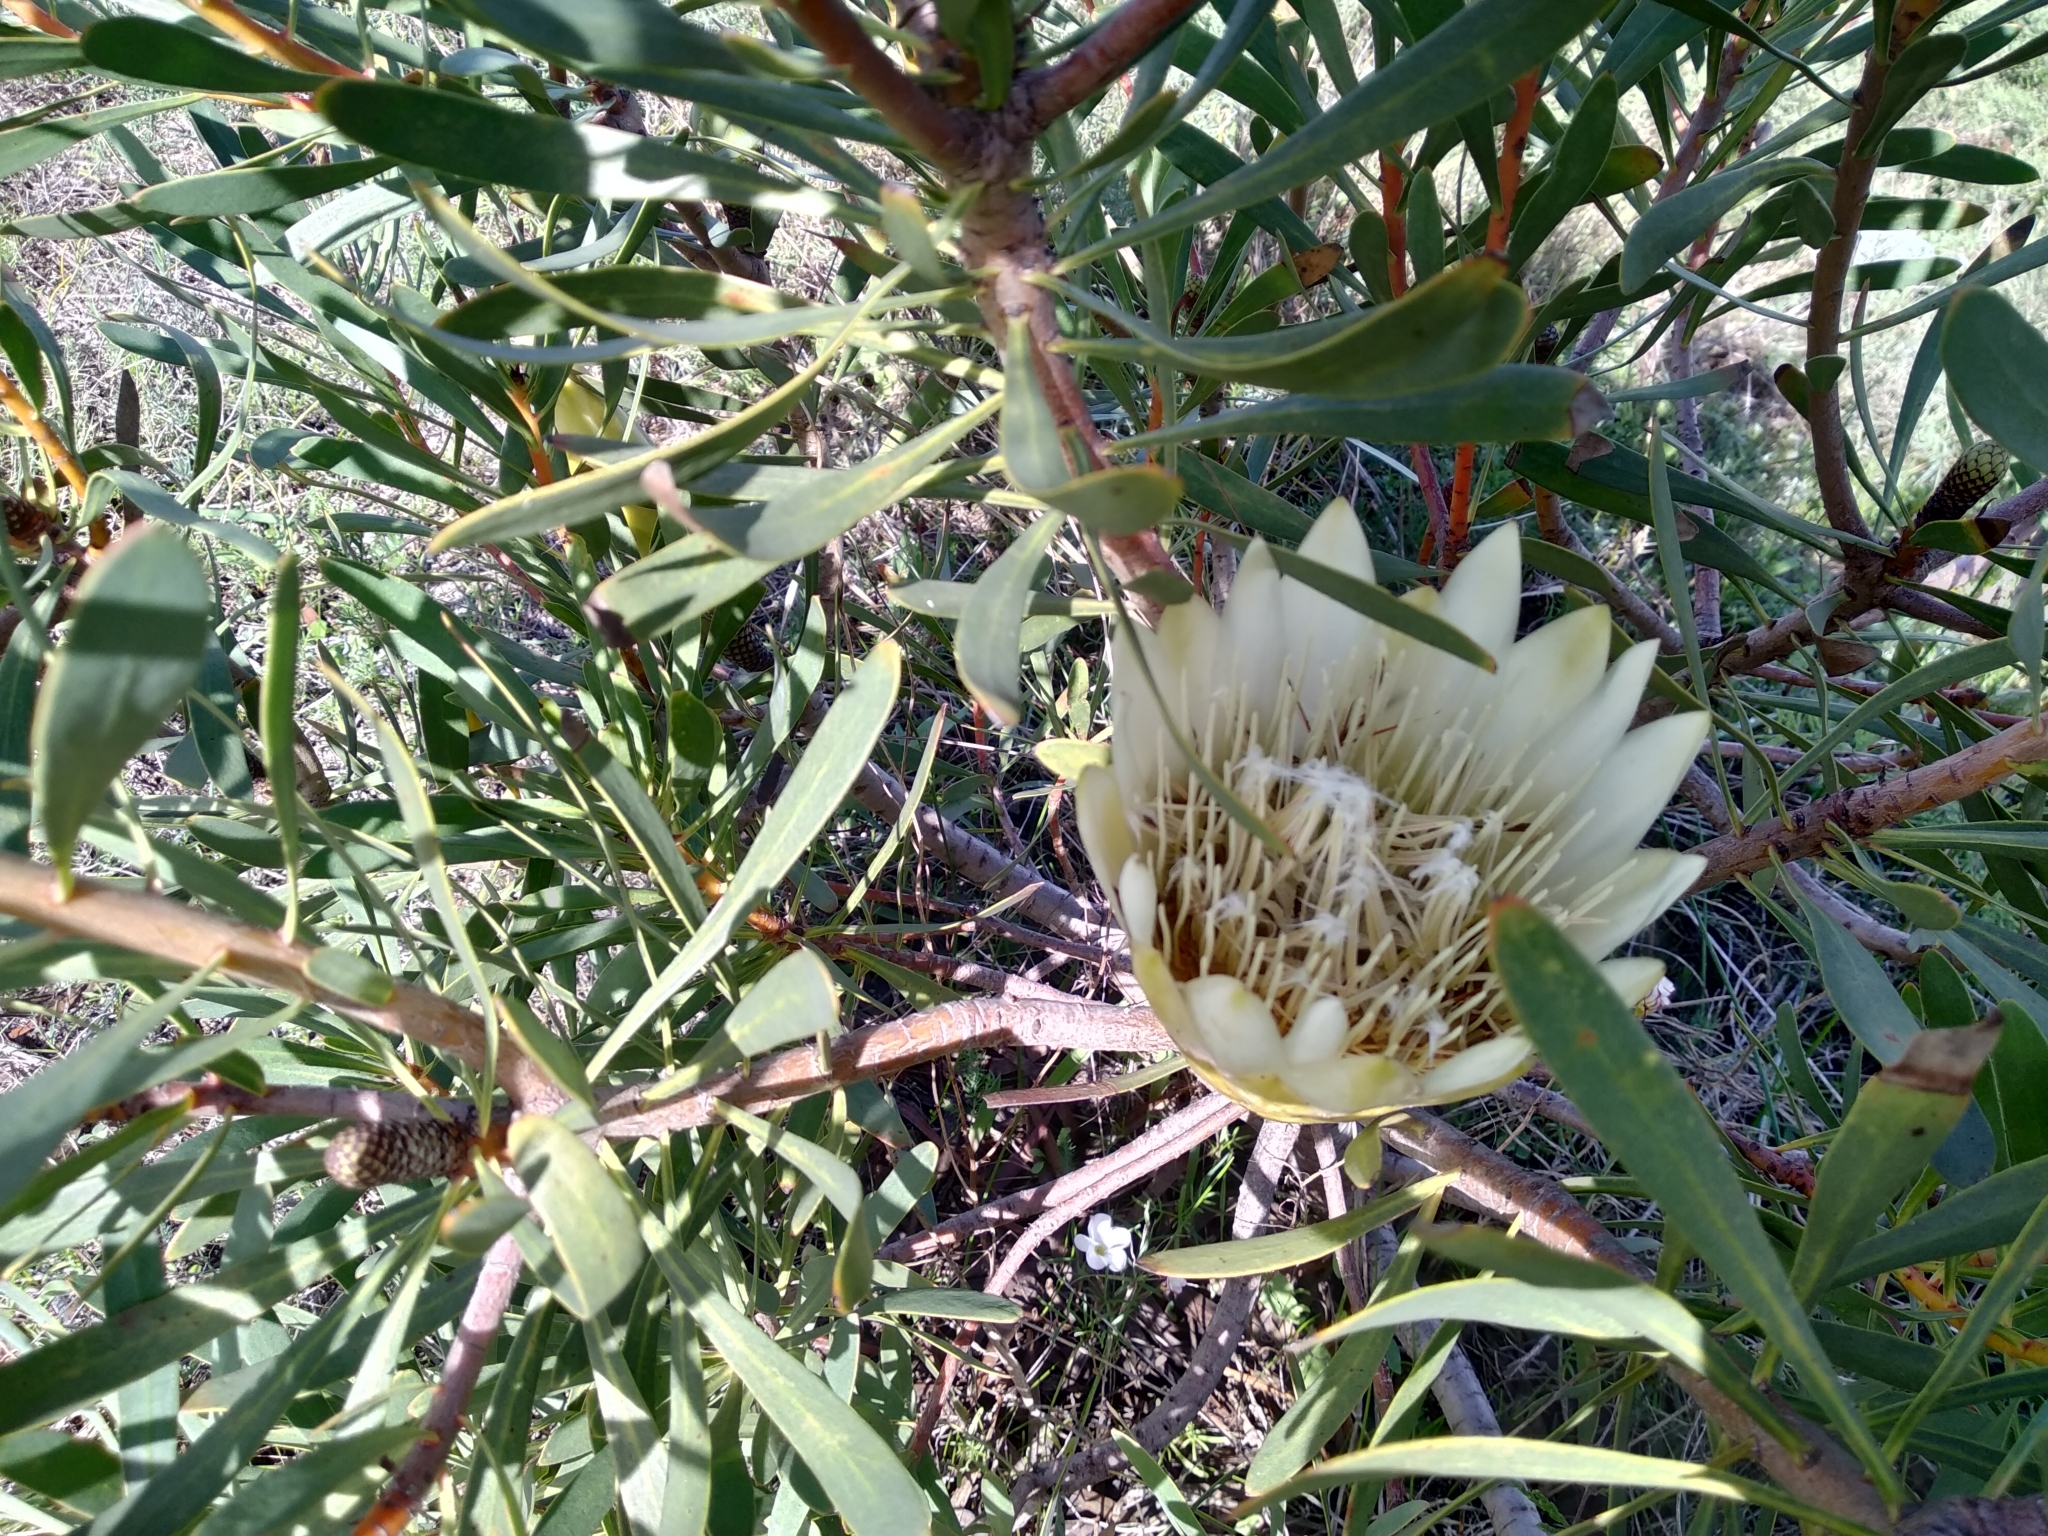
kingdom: Plantae
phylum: Tracheophyta
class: Magnoliopsida
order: Proteales
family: Proteaceae
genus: Protea
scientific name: Protea repens
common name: Sugarbush
